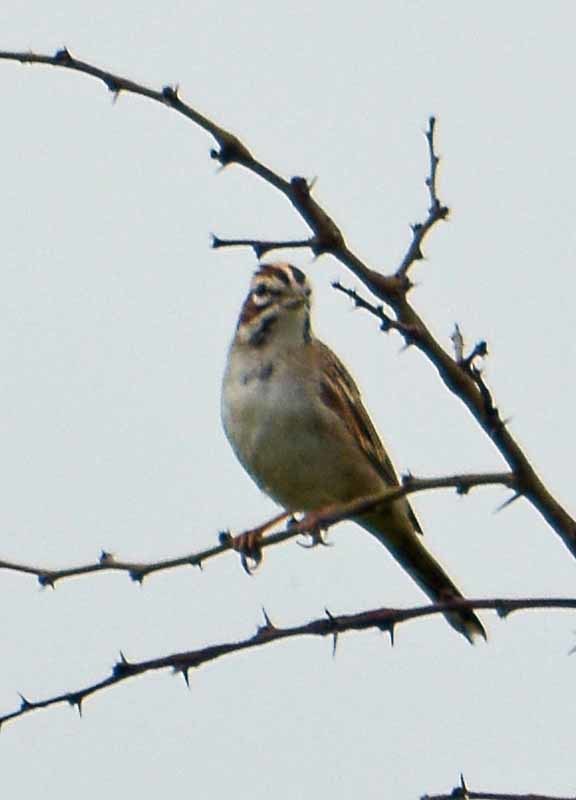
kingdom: Animalia
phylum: Chordata
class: Aves
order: Passeriformes
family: Passerellidae
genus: Chondestes
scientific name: Chondestes grammacus
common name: Lark sparrow
